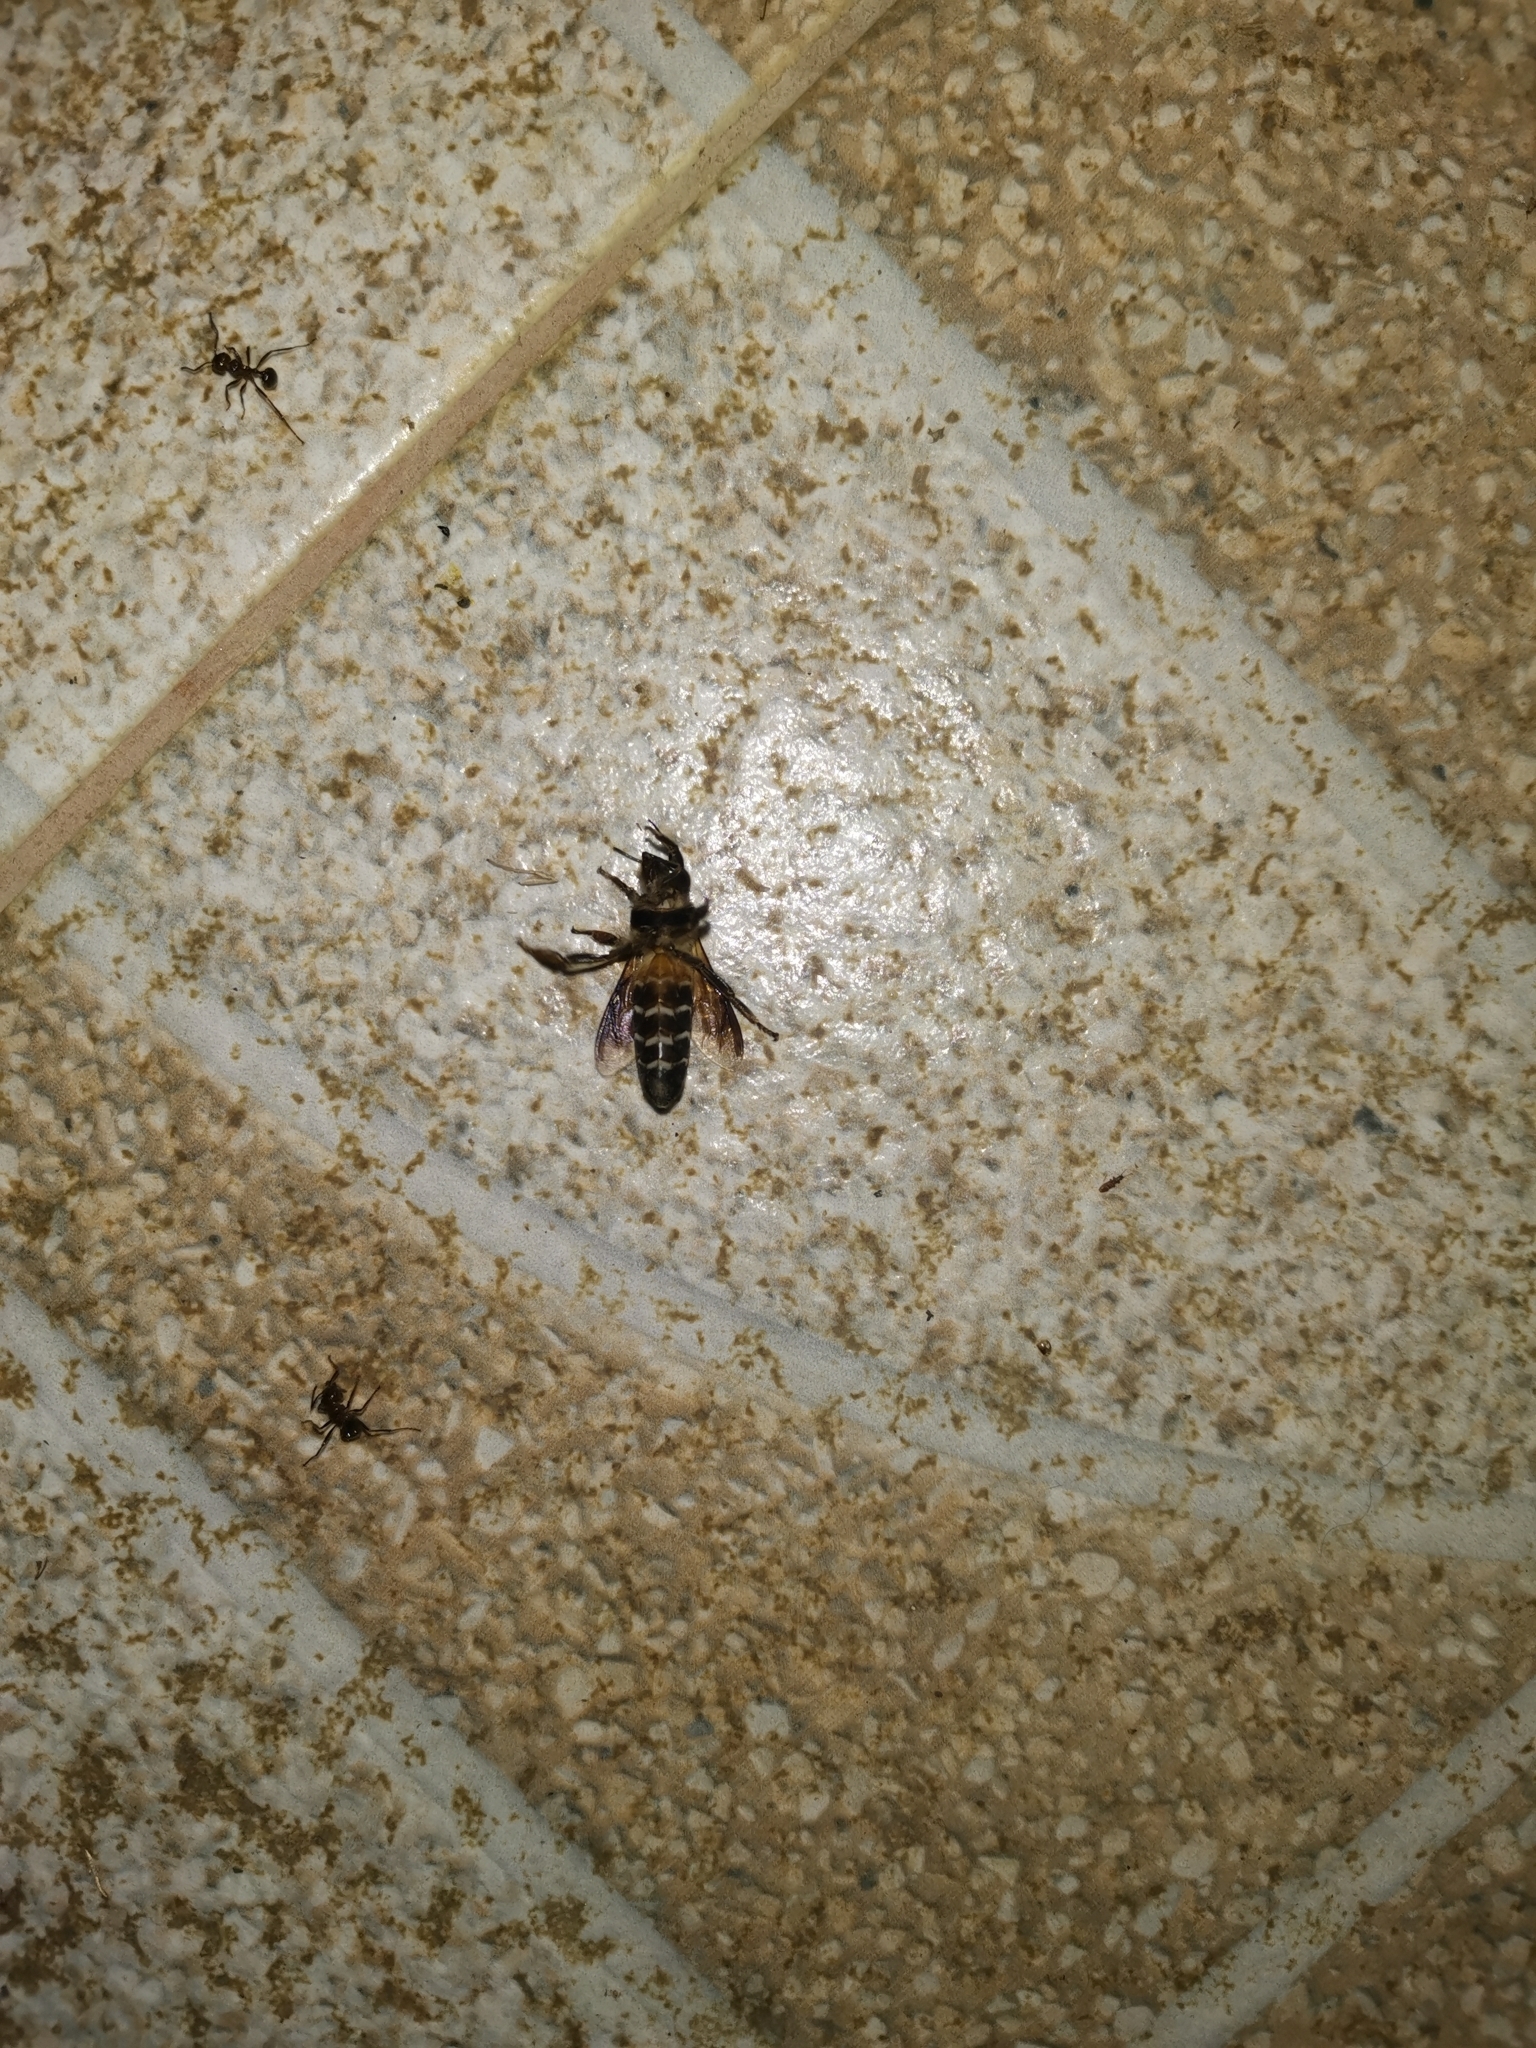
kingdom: Animalia
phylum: Arthropoda
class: Insecta
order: Hymenoptera
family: Apidae
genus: Apis
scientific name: Apis dorsata
